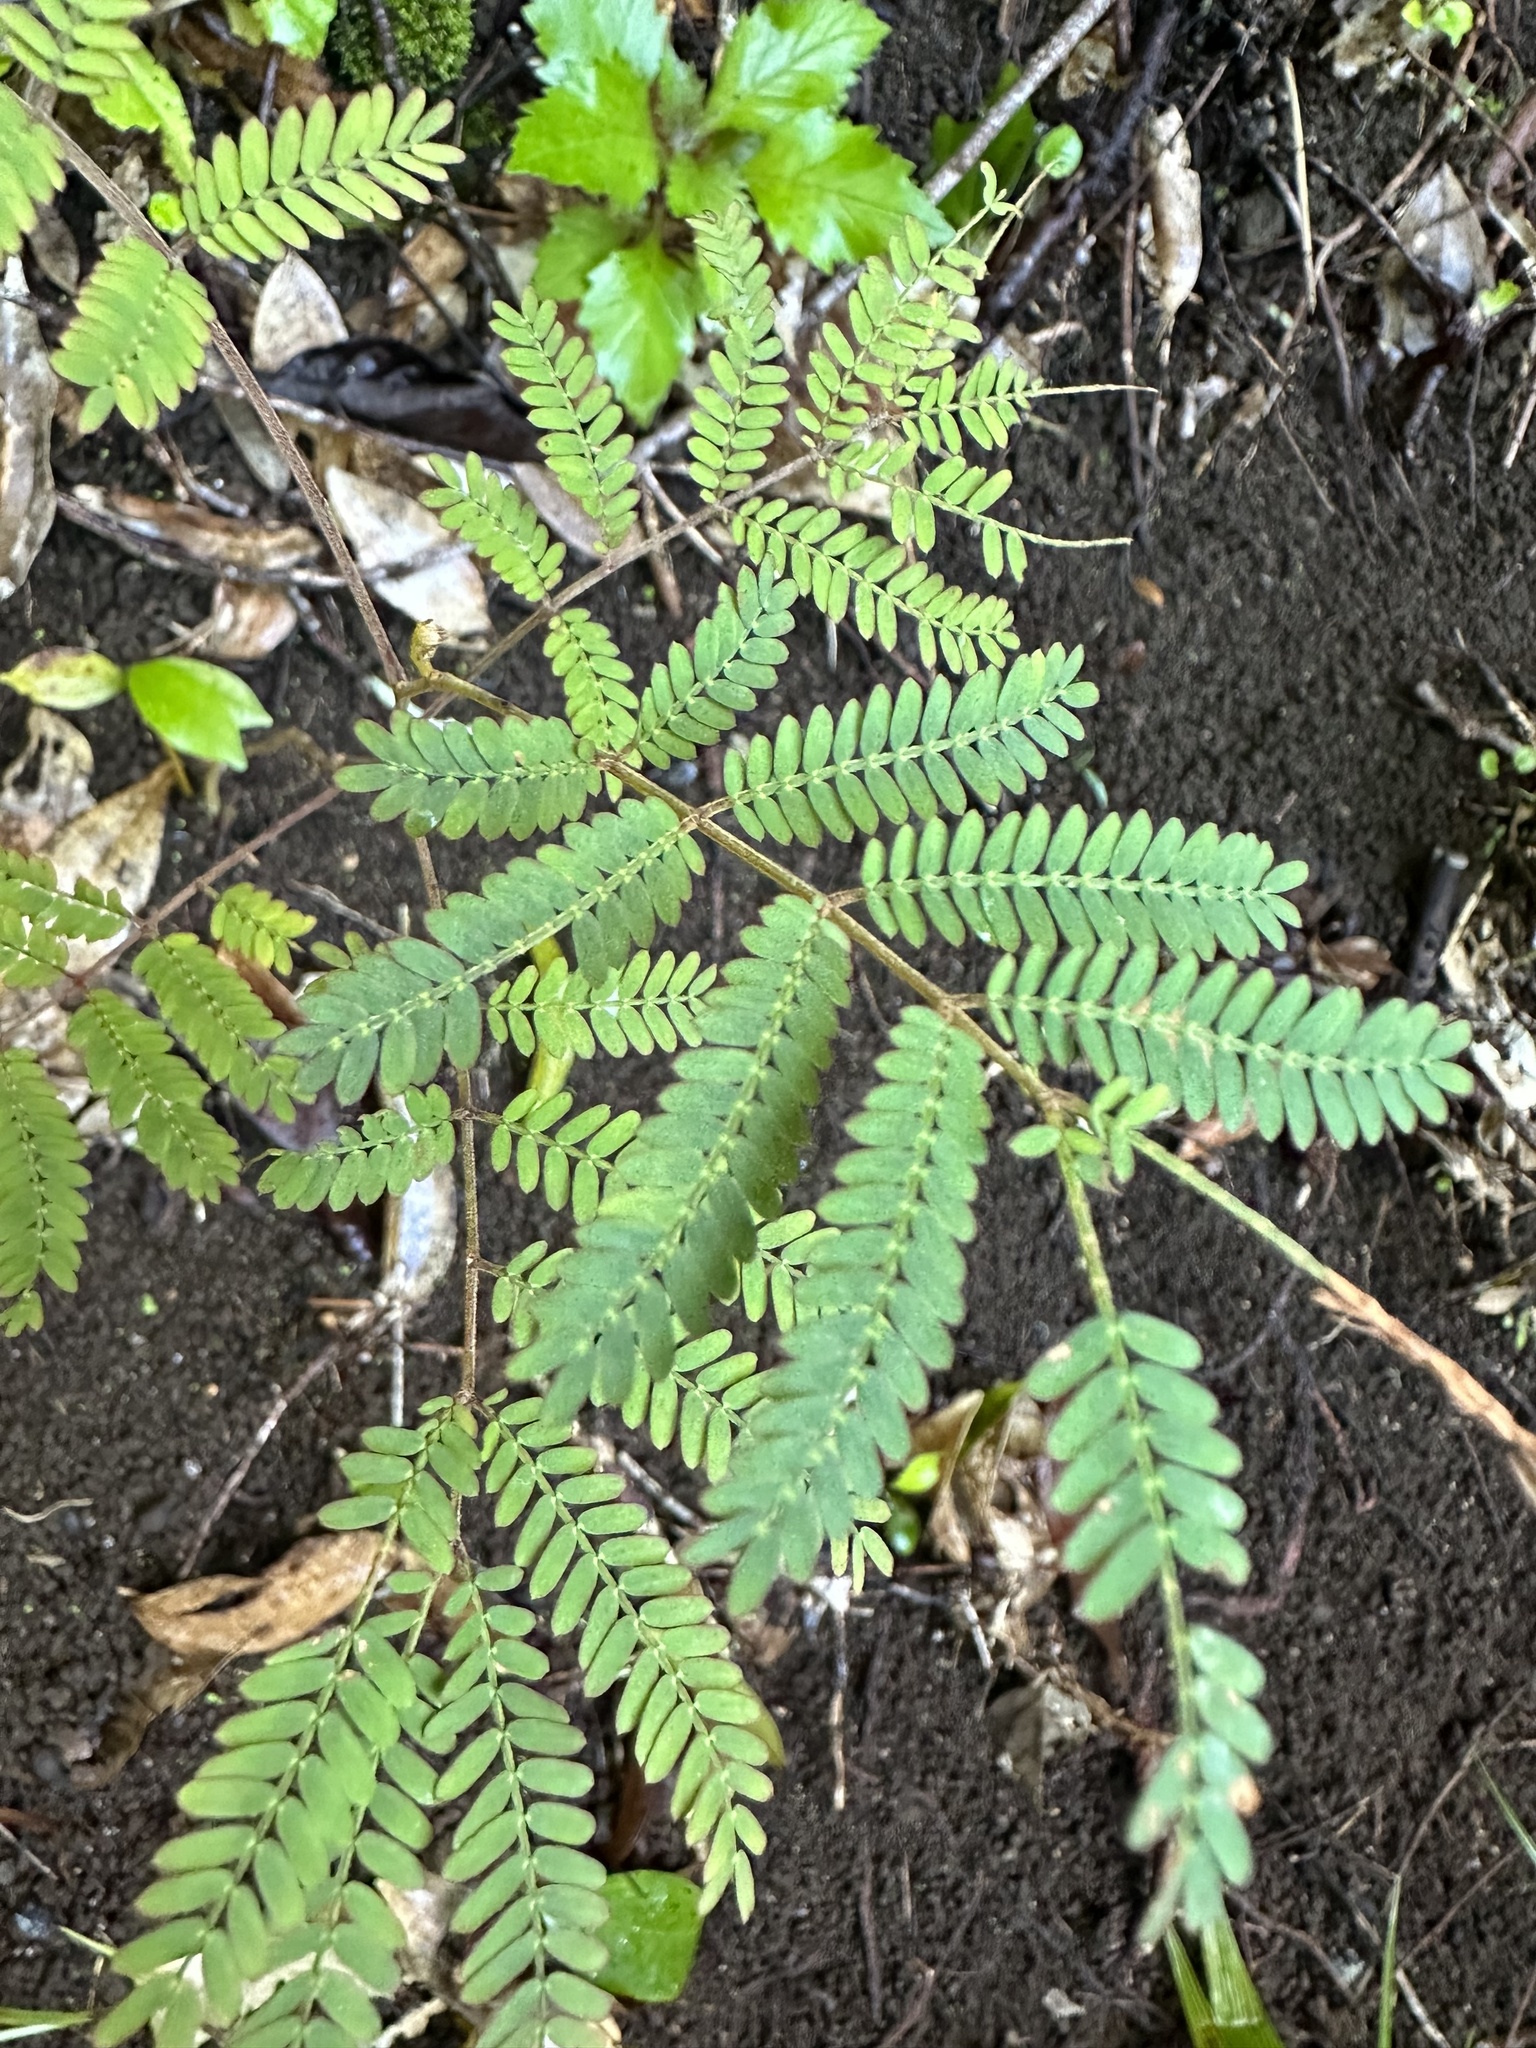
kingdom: Plantae
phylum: Tracheophyta
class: Magnoliopsida
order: Fabales
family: Fabaceae
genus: Acacia
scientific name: Acacia koa
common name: Gray koa
